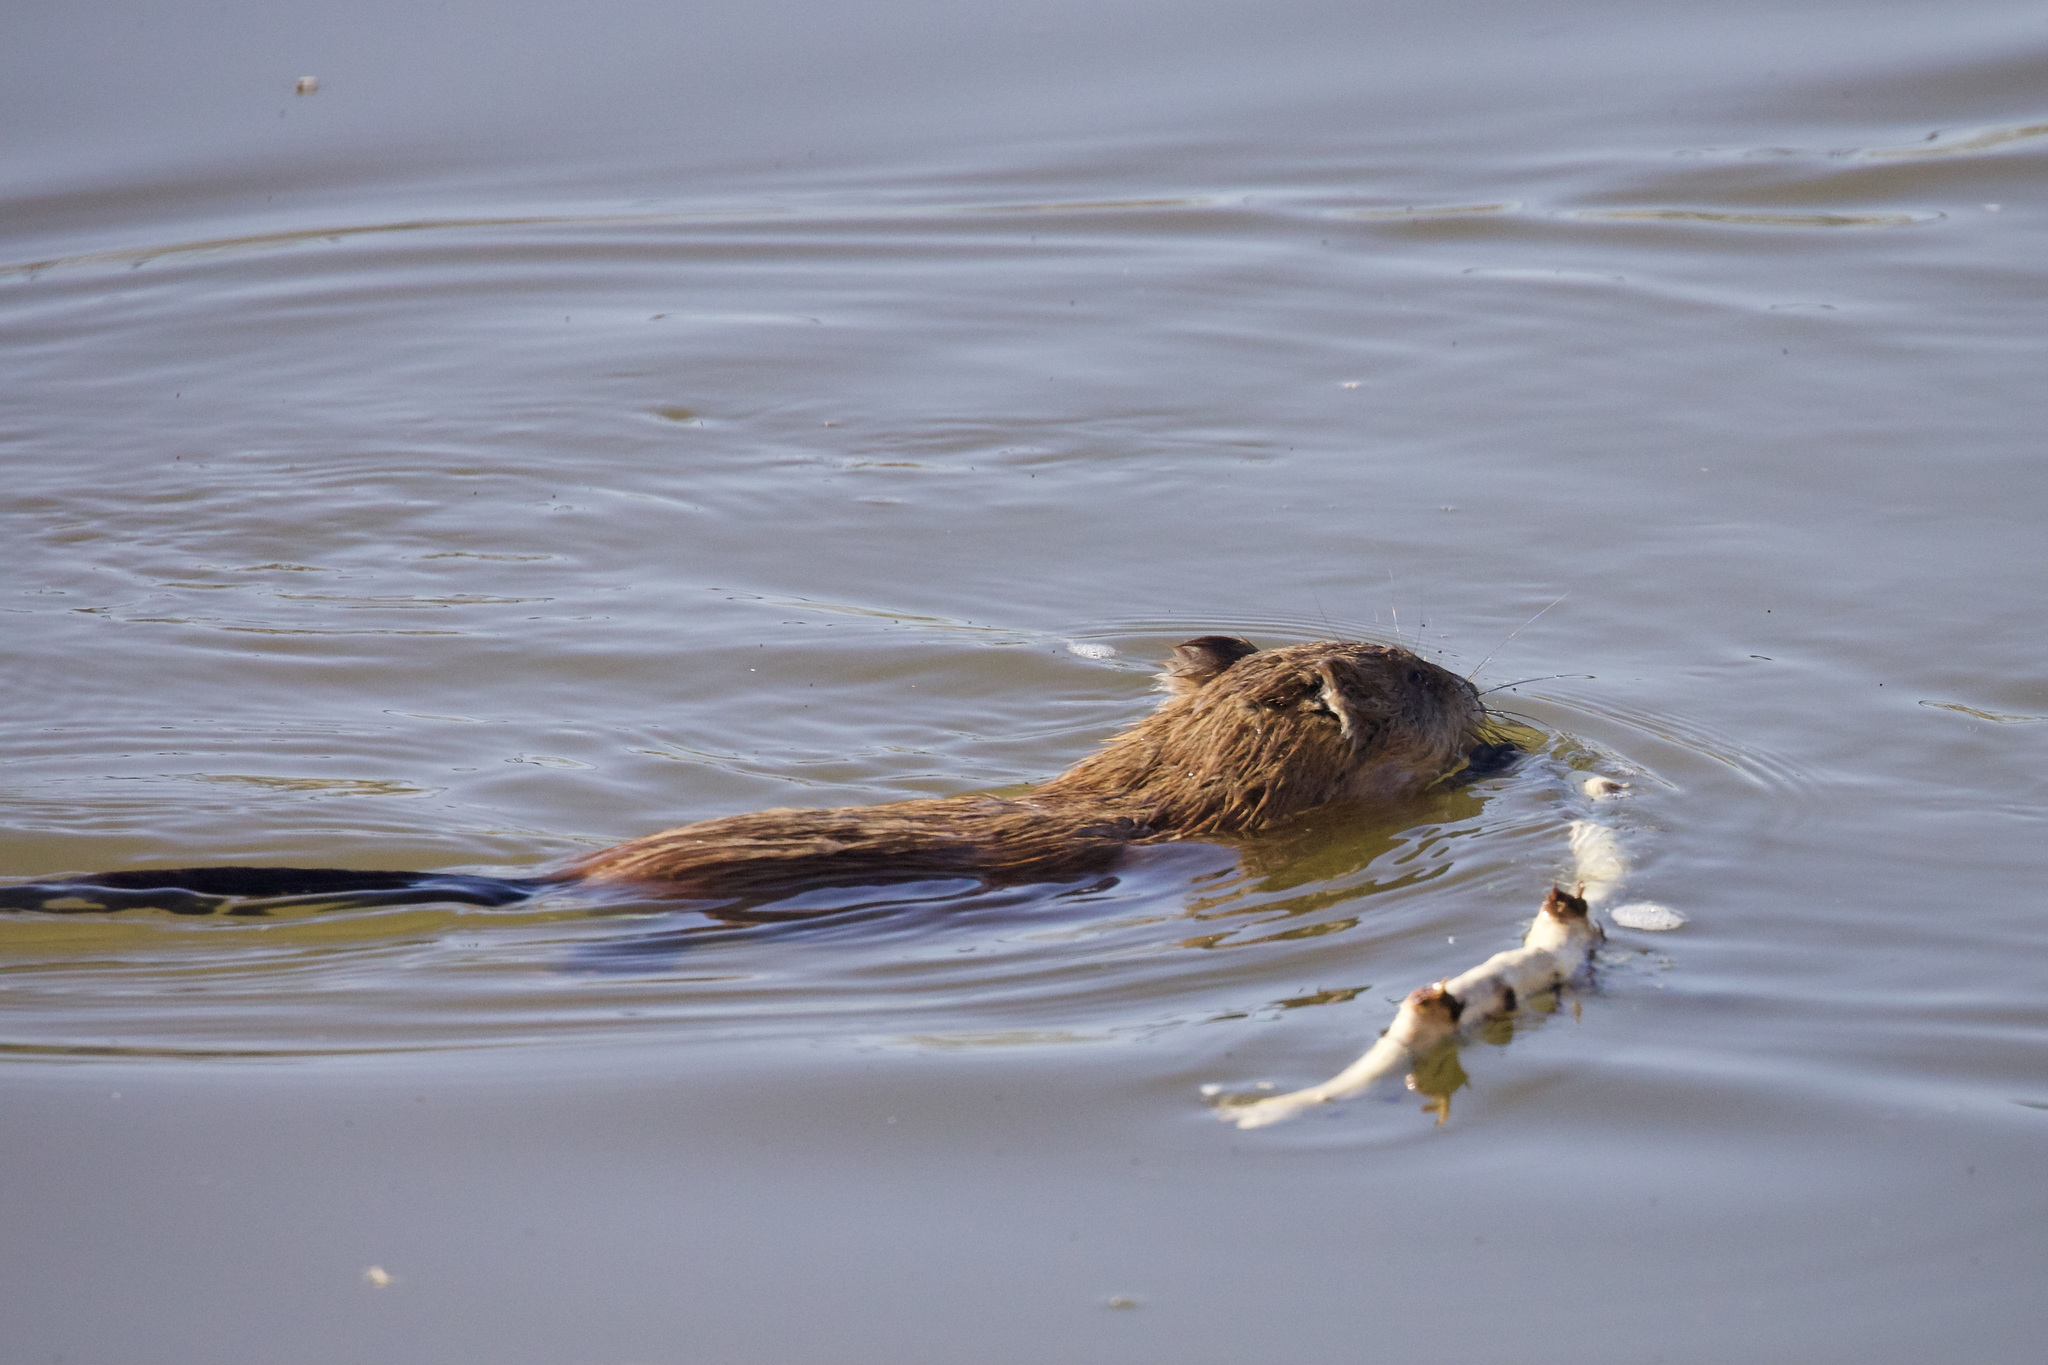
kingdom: Animalia
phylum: Chordata
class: Mammalia
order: Rodentia
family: Cricetidae
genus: Ondatra
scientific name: Ondatra zibethicus
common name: Muskrat
